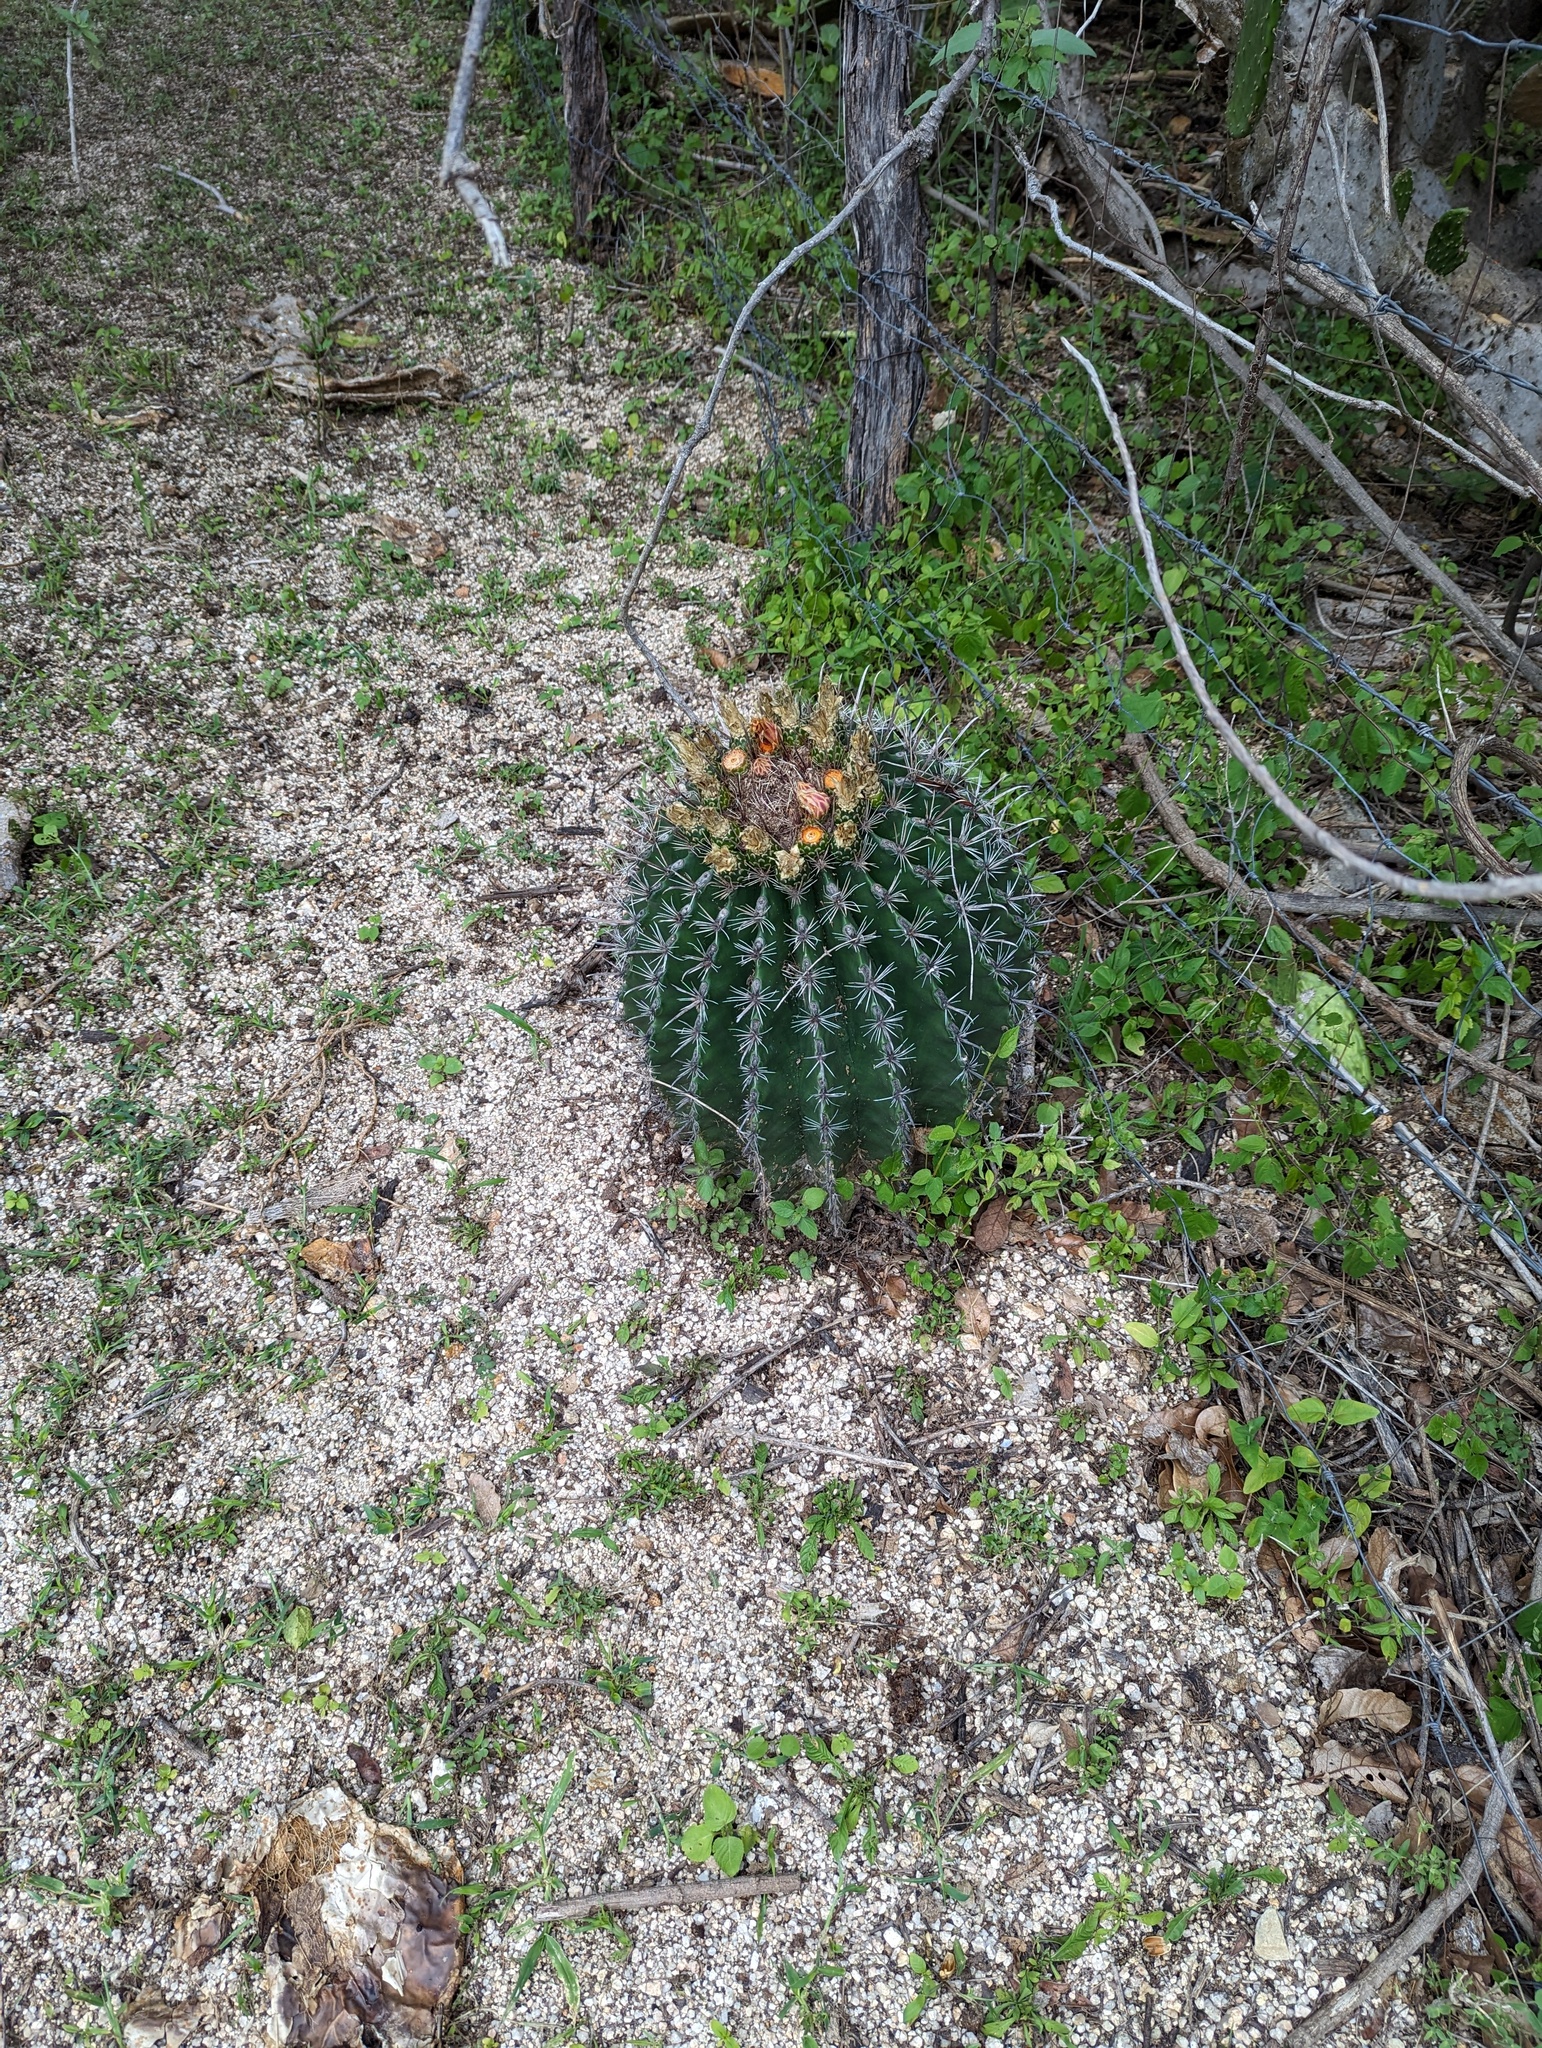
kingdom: Plantae
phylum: Tracheophyta
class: Magnoliopsida
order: Caryophyllales
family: Cactaceae
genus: Ferocactus
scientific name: Ferocactus townsendianus
